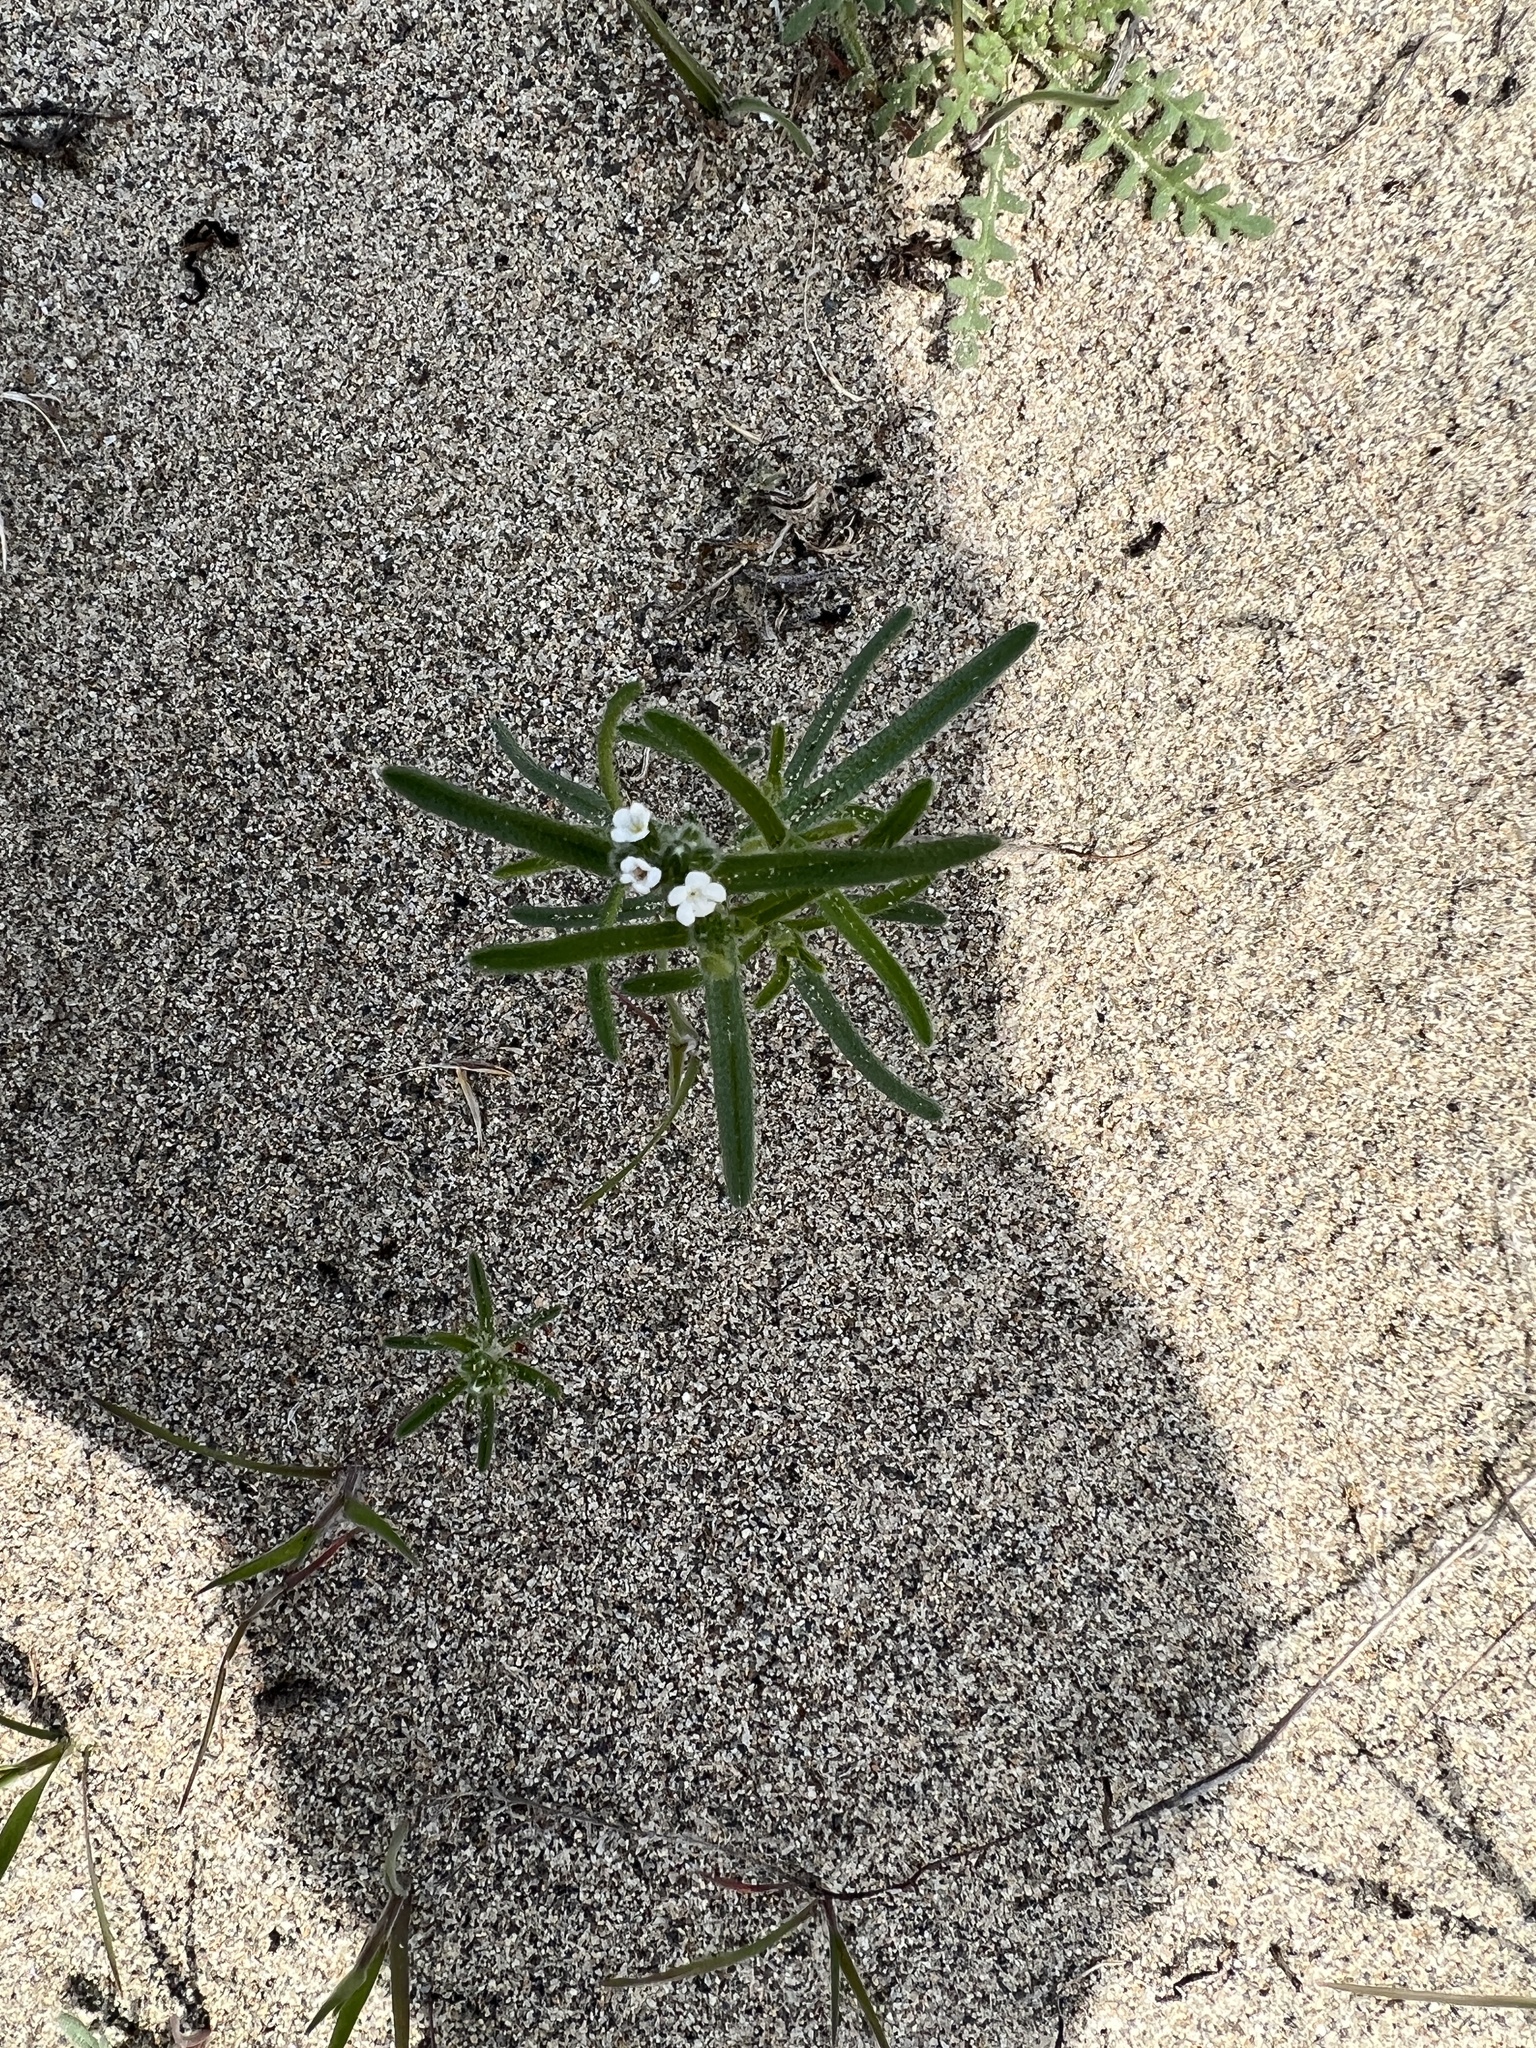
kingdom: Plantae
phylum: Tracheophyta
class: Magnoliopsida
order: Boraginales
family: Boraginaceae
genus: Cryptantha
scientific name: Cryptantha pterocarya
